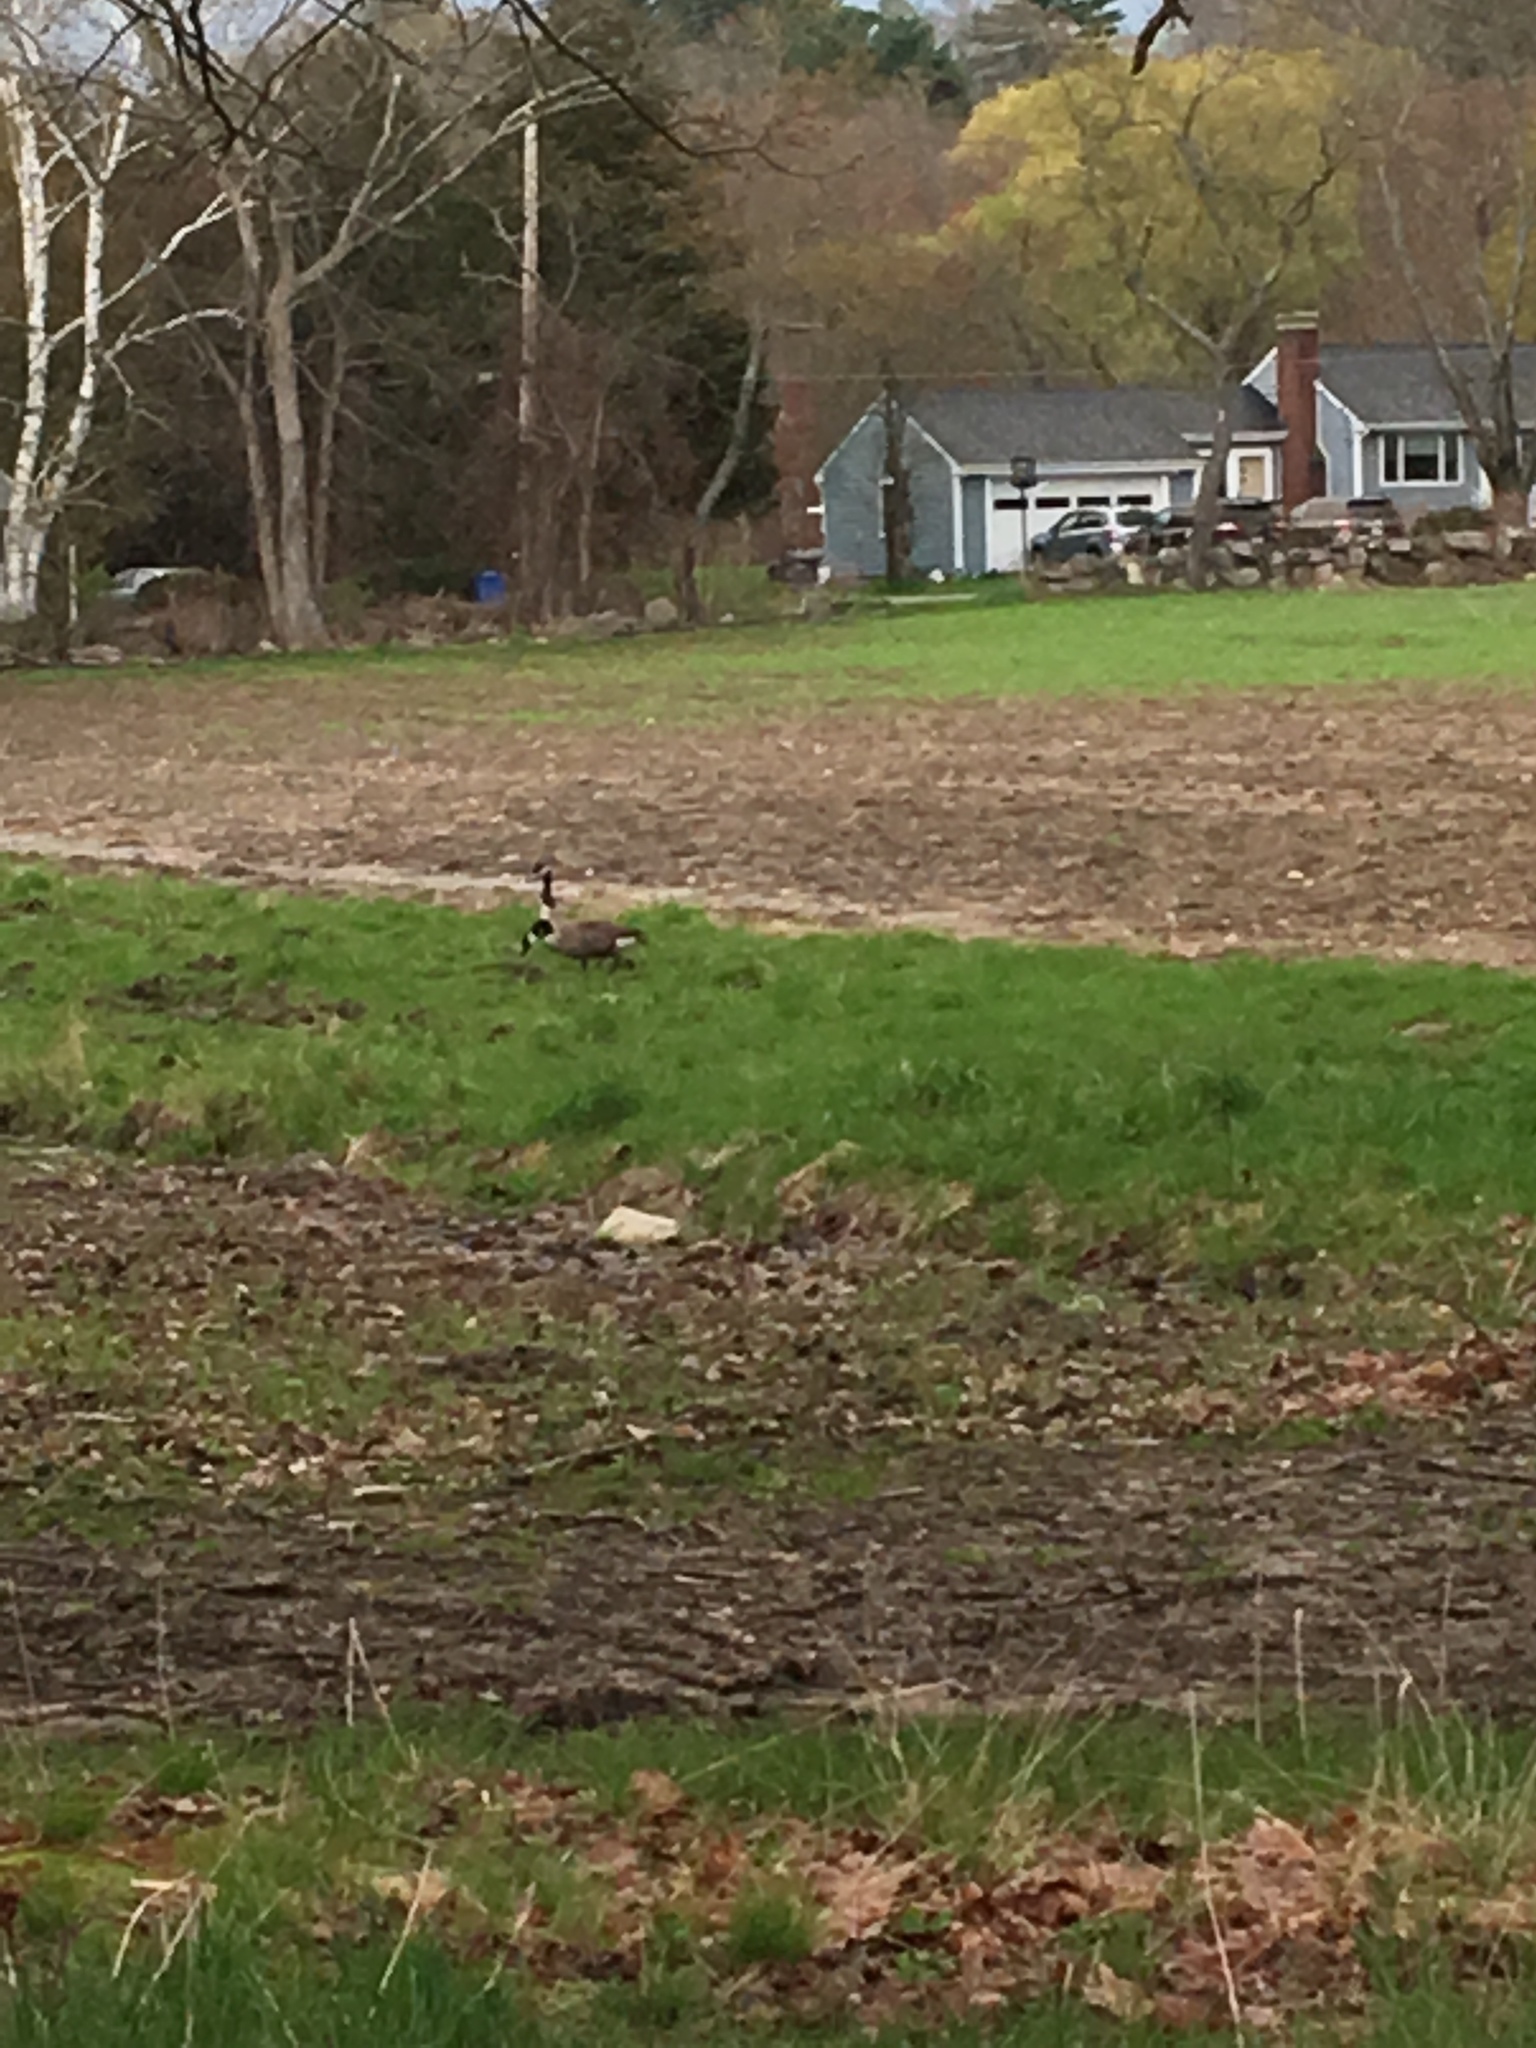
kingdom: Animalia
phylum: Chordata
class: Aves
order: Anseriformes
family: Anatidae
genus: Branta
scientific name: Branta canadensis
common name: Canada goose
